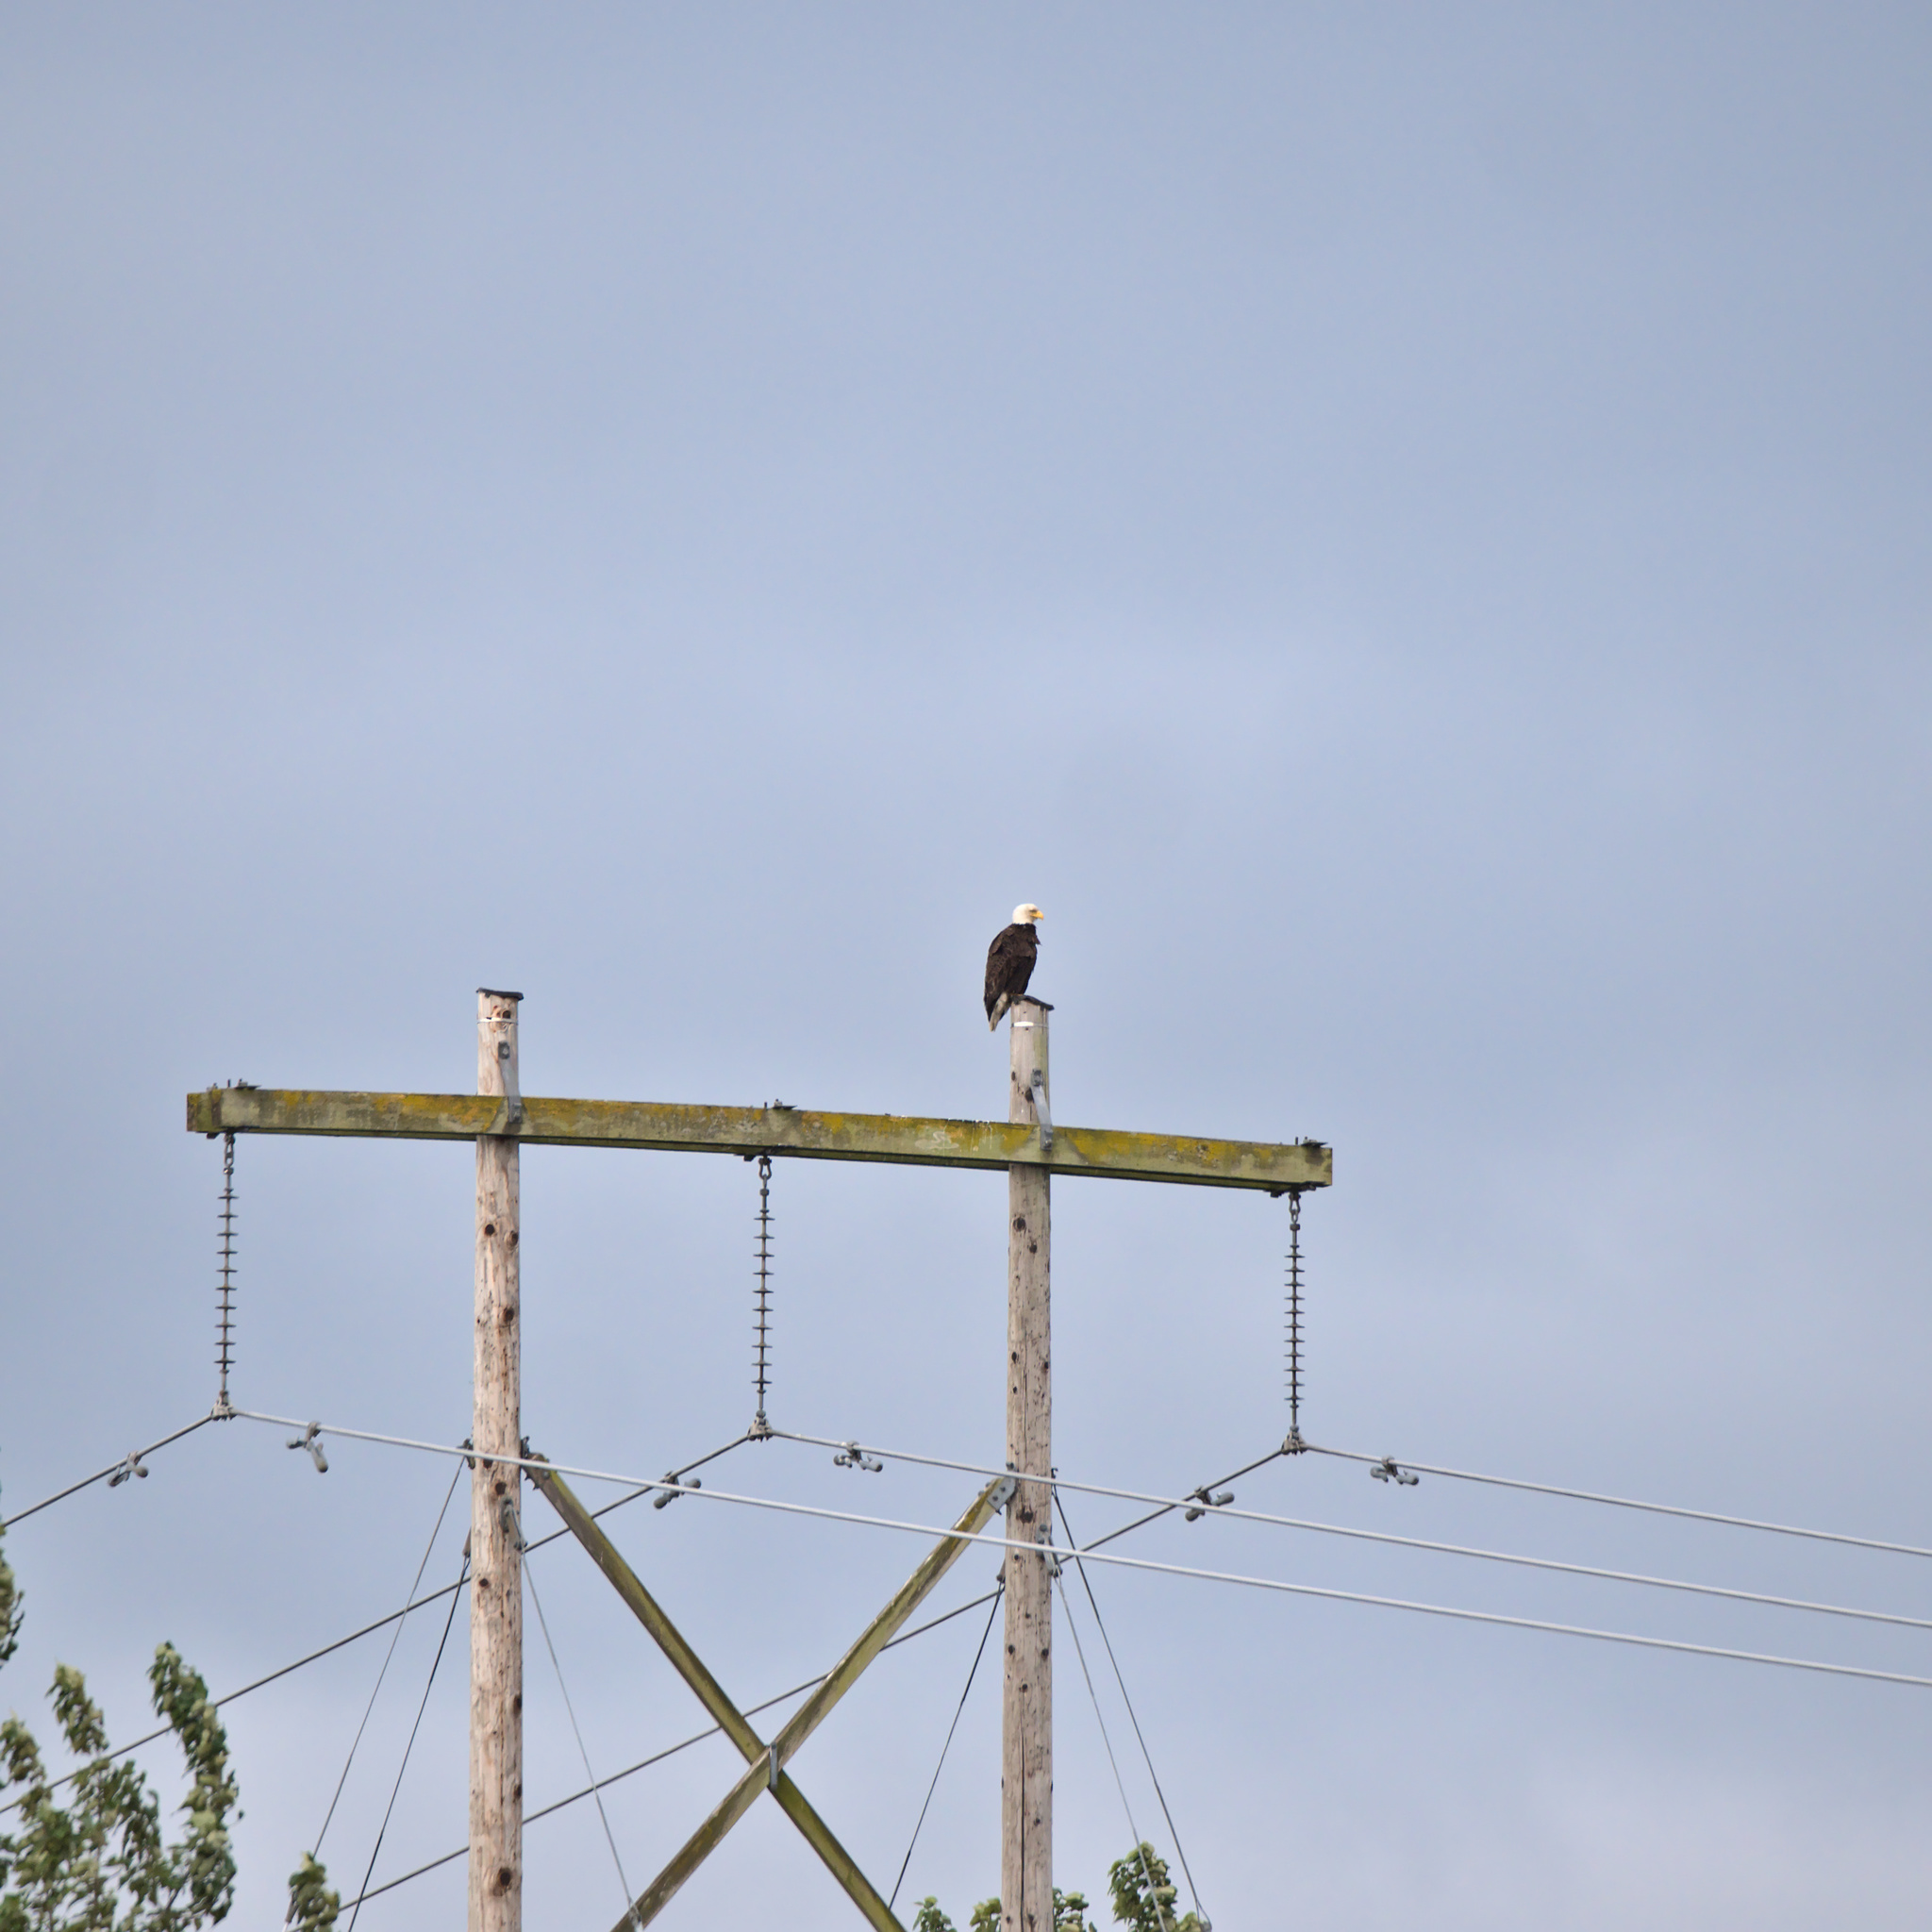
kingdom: Animalia
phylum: Chordata
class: Aves
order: Accipitriformes
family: Accipitridae
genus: Haliaeetus
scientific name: Haliaeetus leucocephalus
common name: Bald eagle
